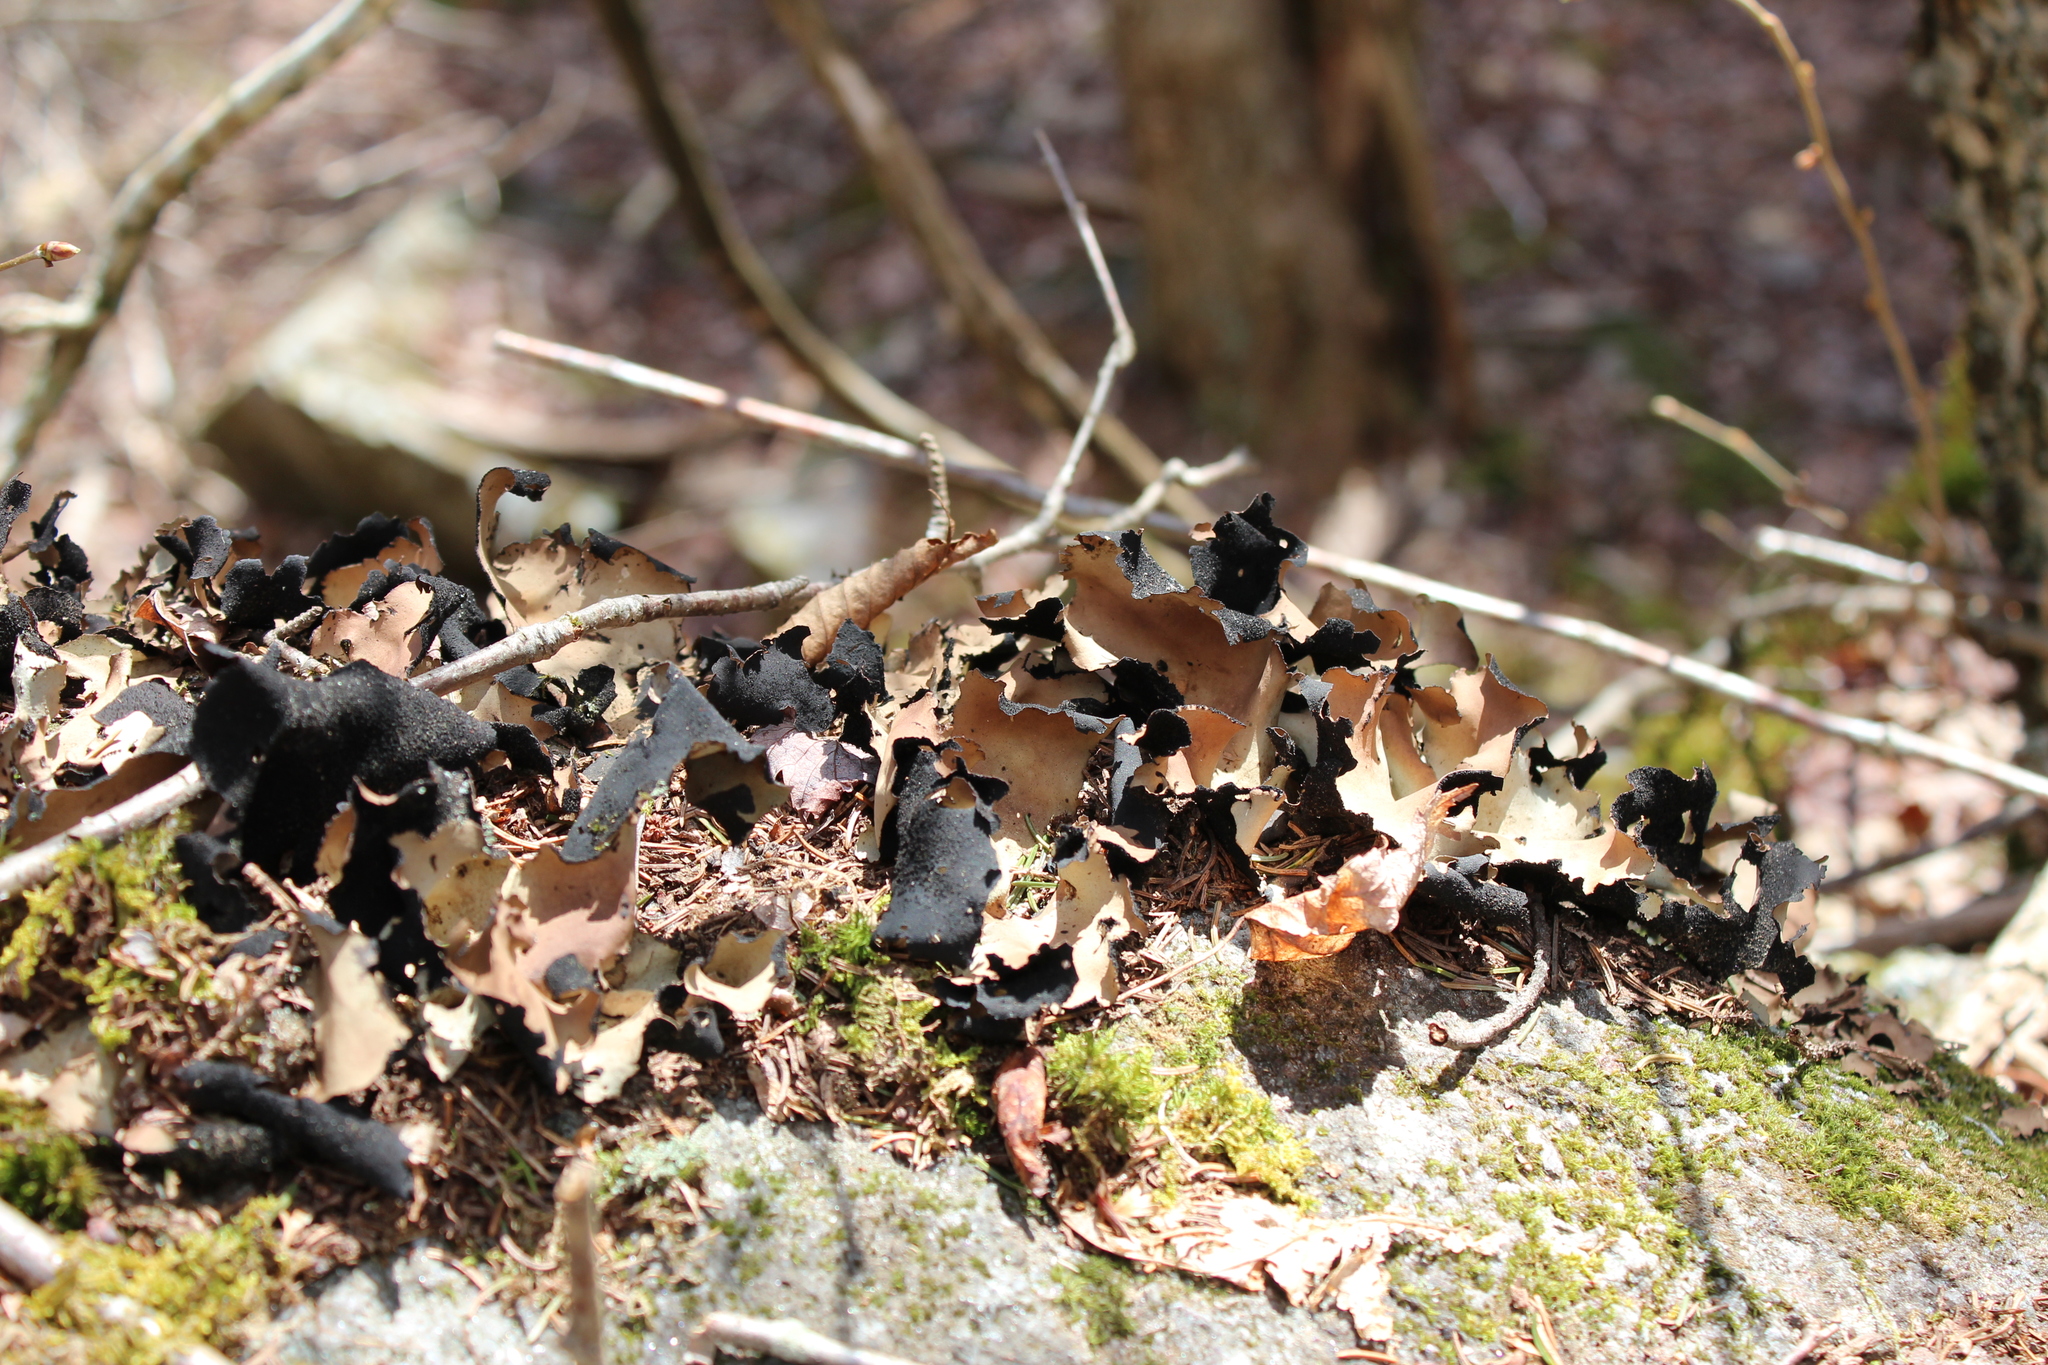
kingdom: Fungi
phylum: Ascomycota
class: Lecanoromycetes
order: Umbilicariales
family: Umbilicariaceae
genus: Umbilicaria
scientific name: Umbilicaria mammulata
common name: Smooth rock tripe
